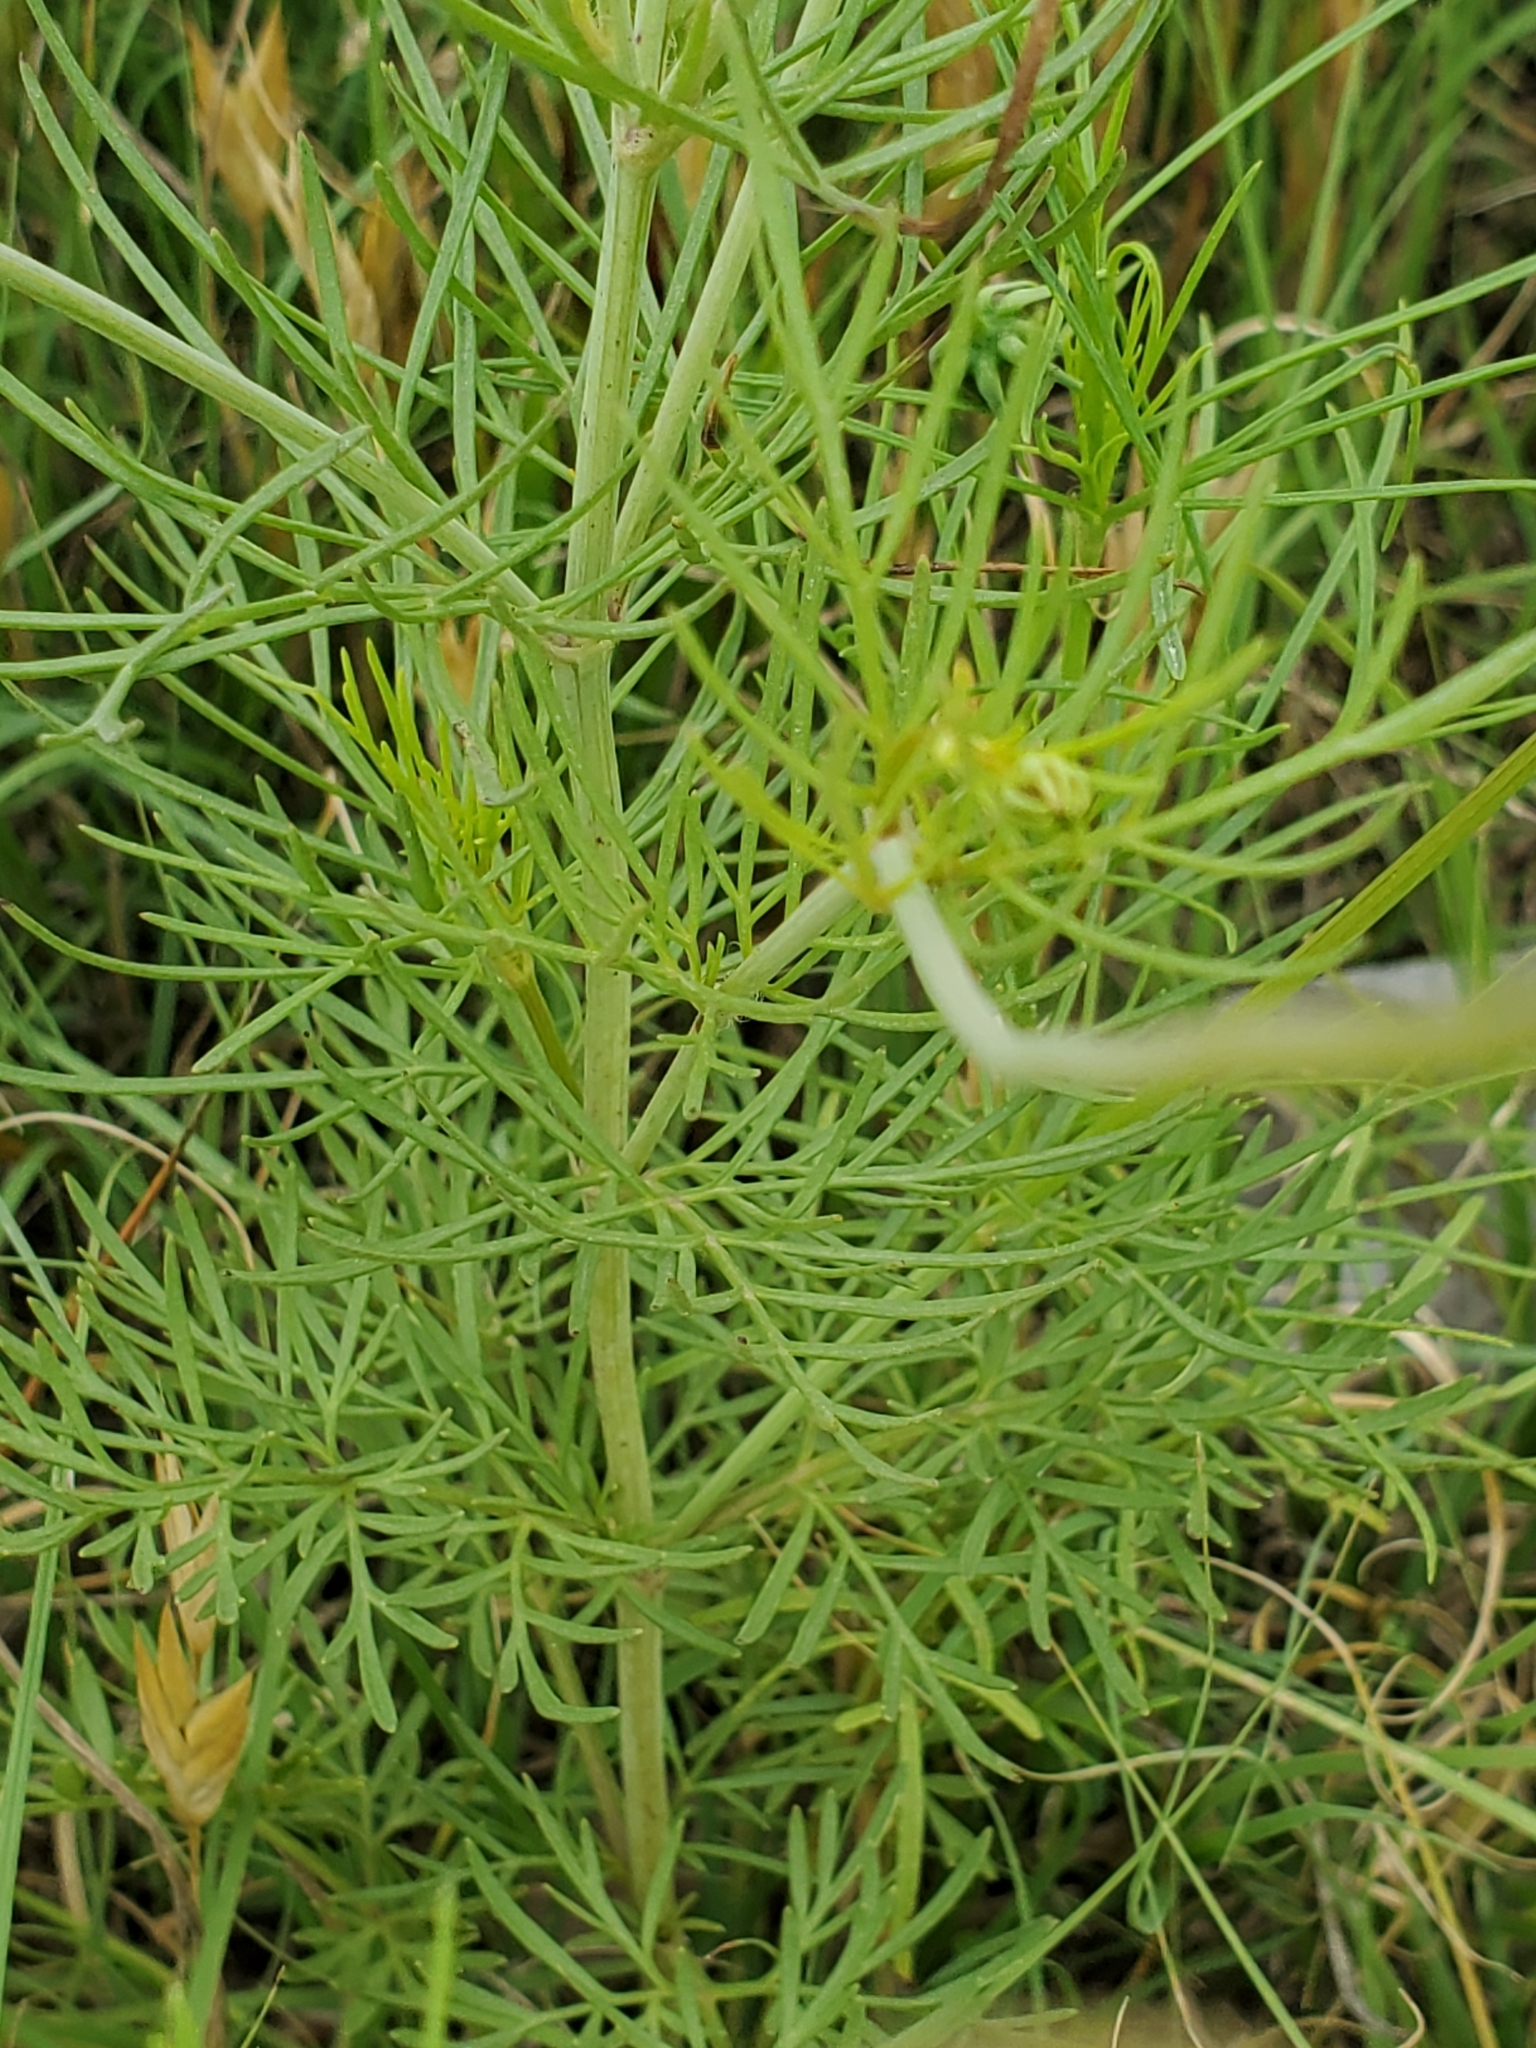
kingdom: Plantae
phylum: Tracheophyta
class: Magnoliopsida
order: Asterales
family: Asteraceae
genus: Thelesperma
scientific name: Thelesperma filifolium
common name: Stiff greenthread
